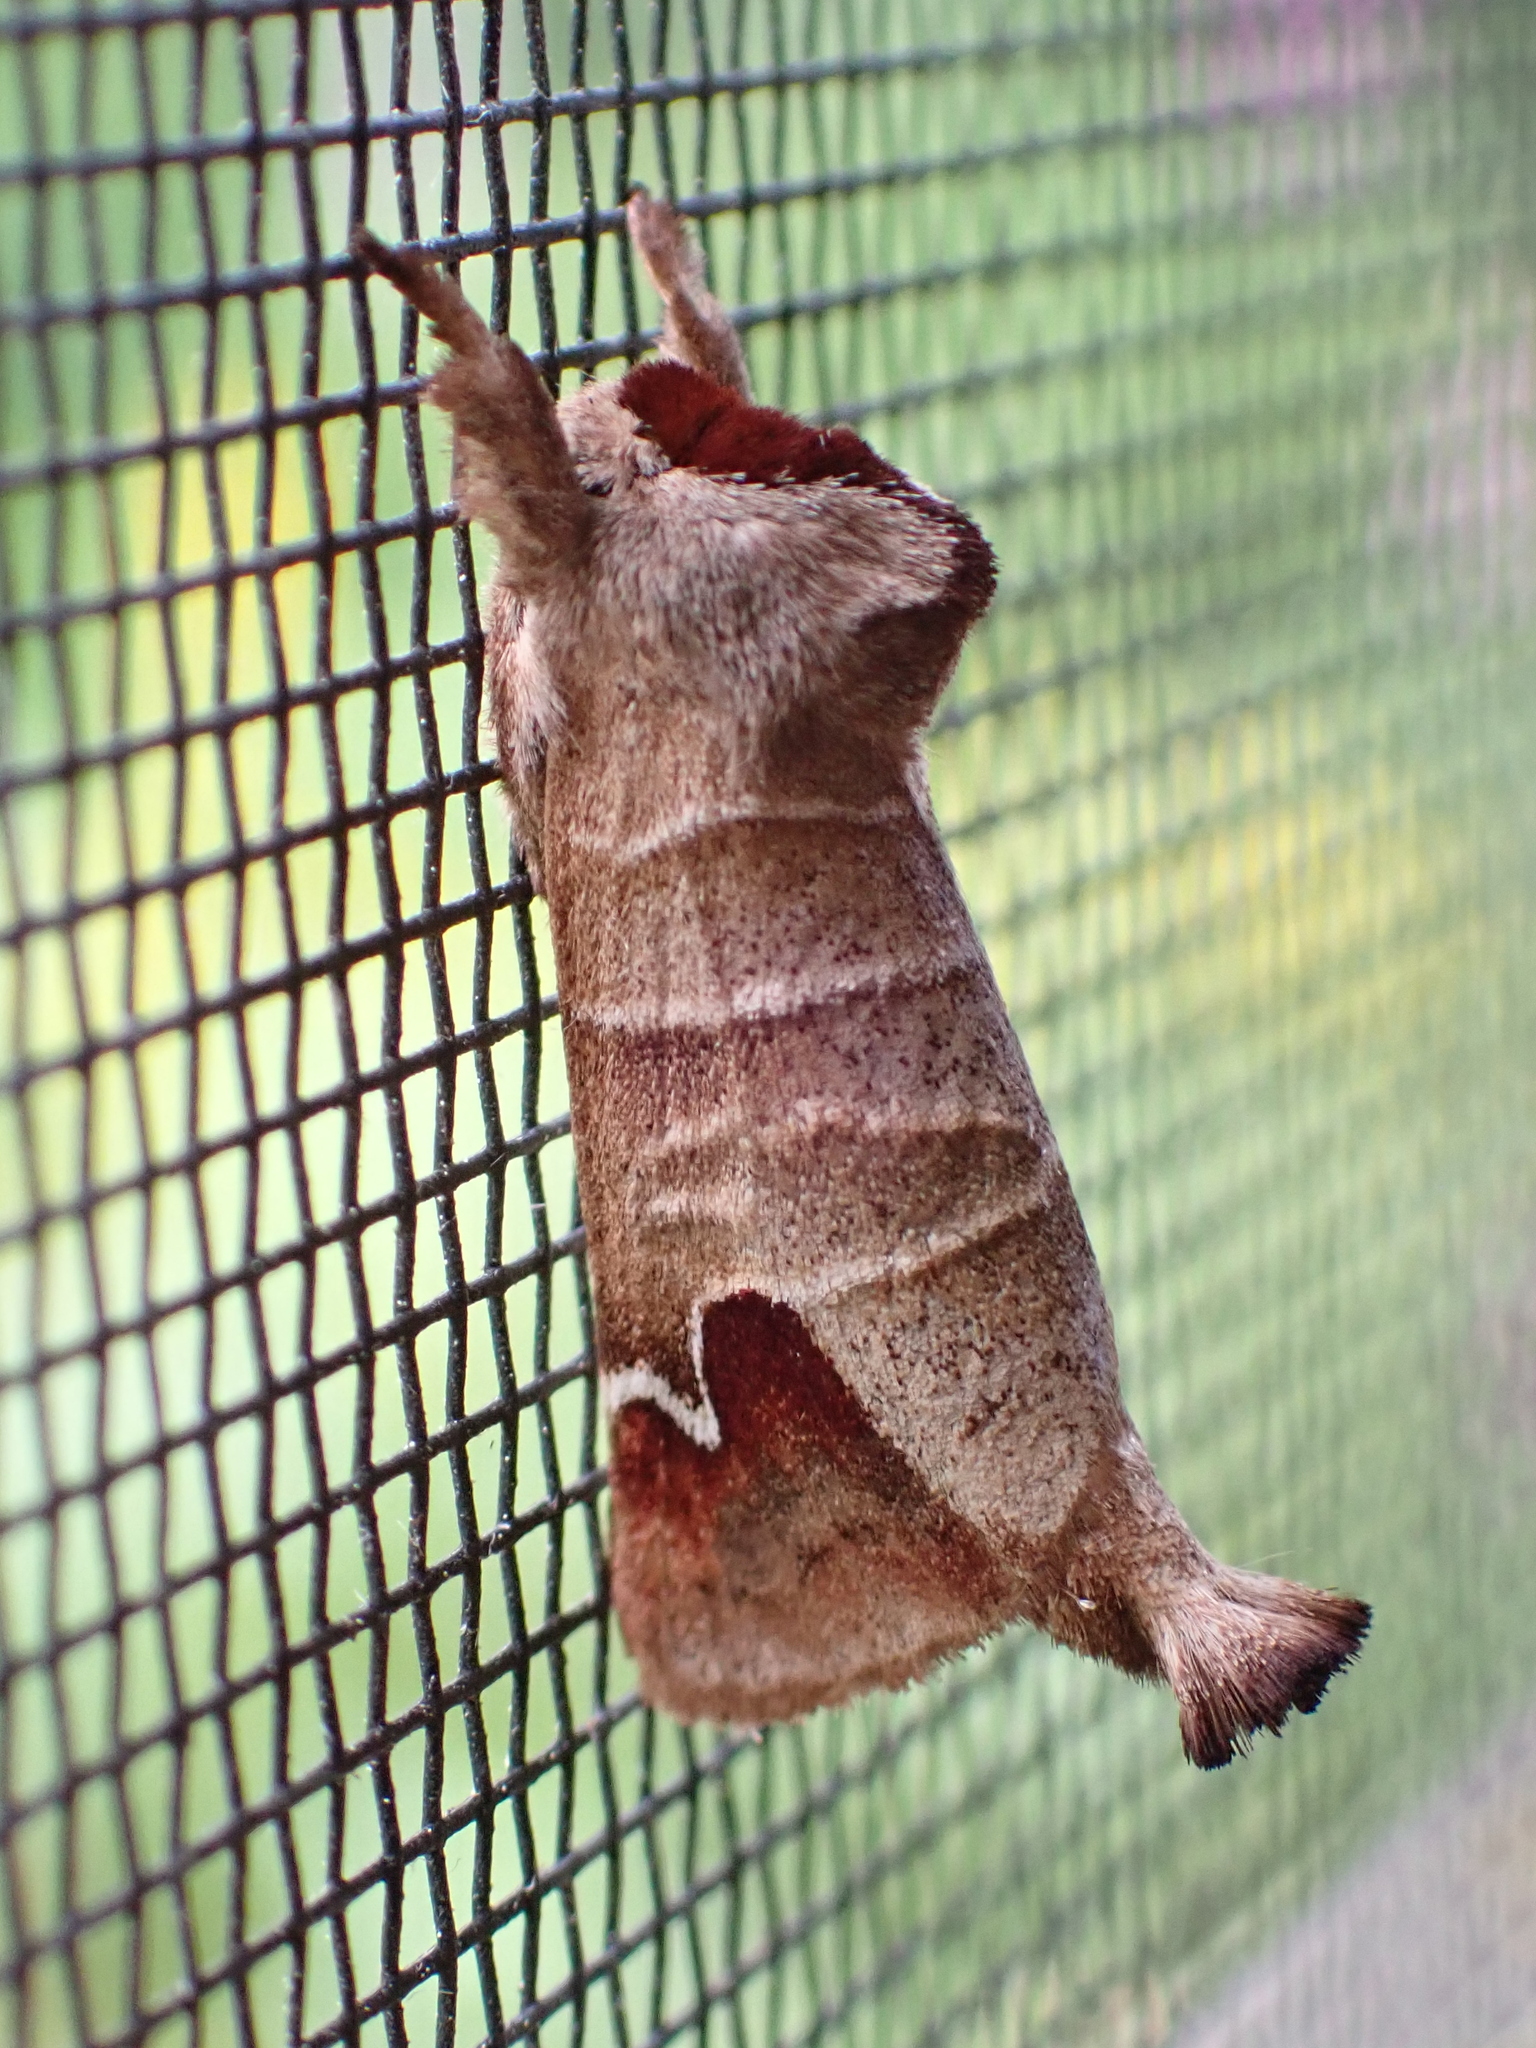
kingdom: Animalia
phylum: Arthropoda
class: Insecta
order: Lepidoptera
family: Notodontidae
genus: Clostera
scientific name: Clostera albosigma
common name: Sigmoid prominent
